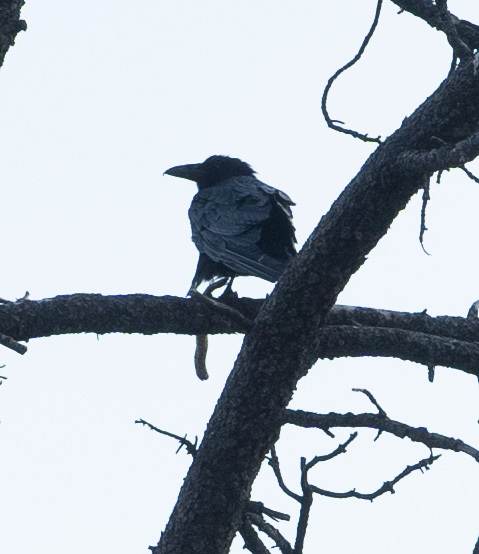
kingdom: Animalia
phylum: Chordata
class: Aves
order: Passeriformes
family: Corvidae
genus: Corvus
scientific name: Corvus corax
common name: Common raven
